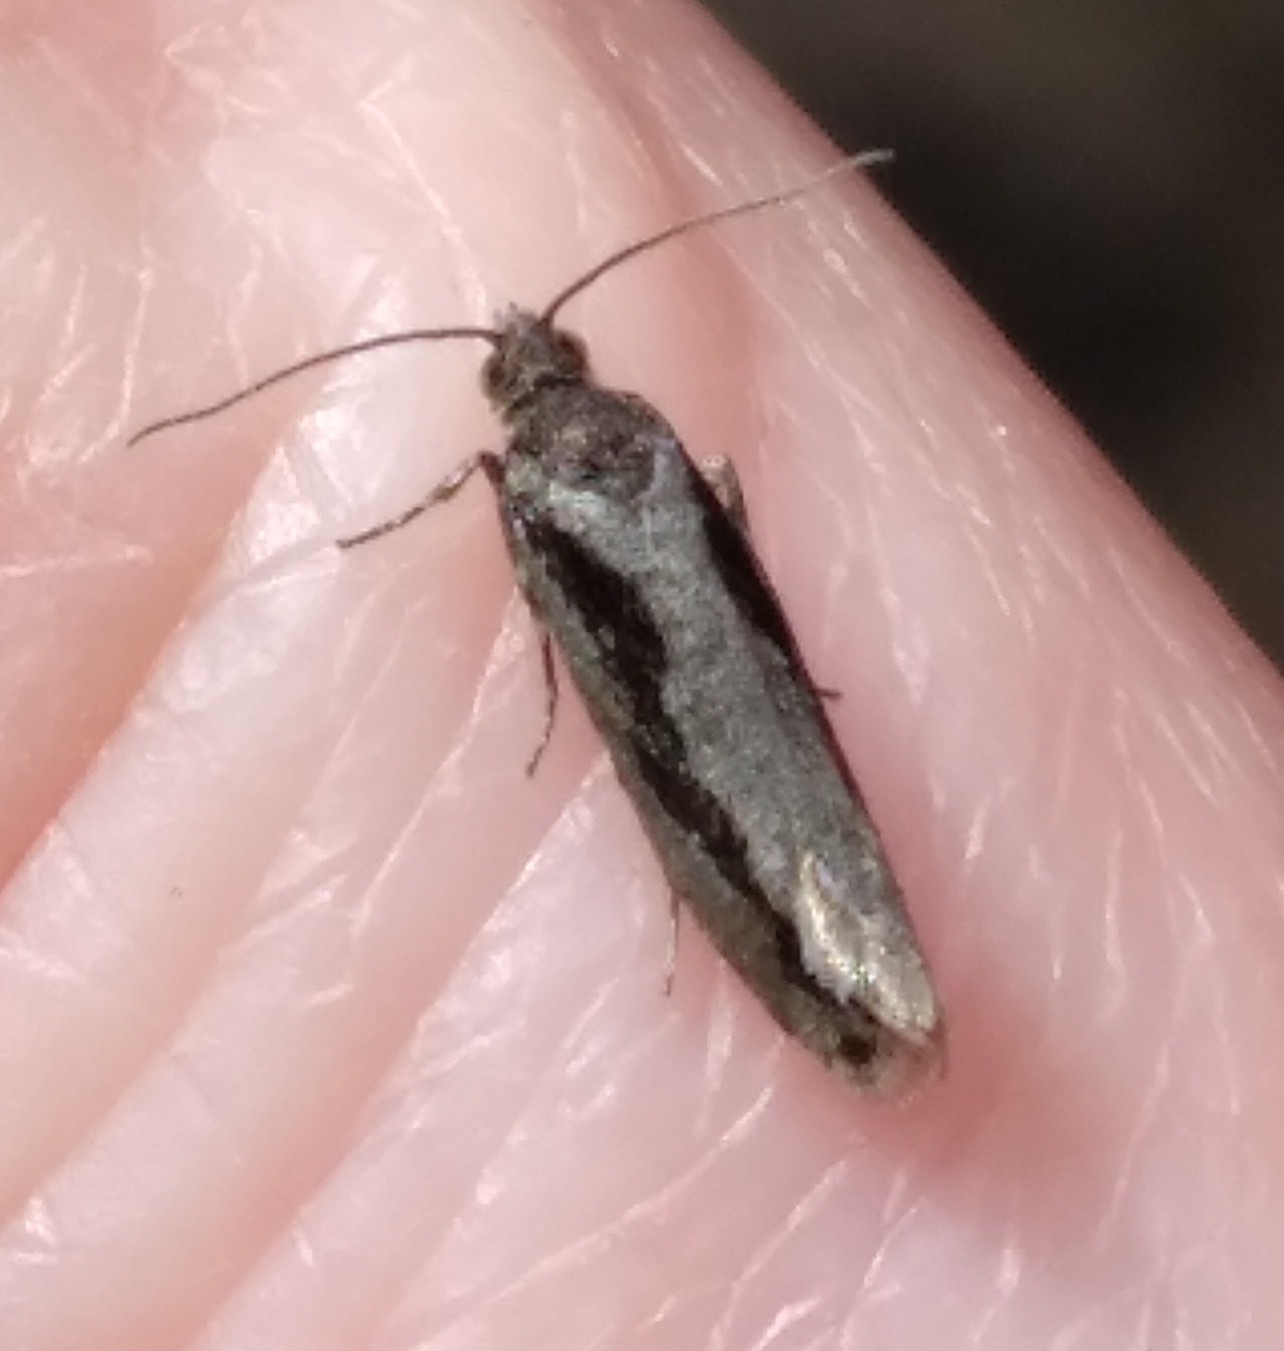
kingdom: Animalia
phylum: Arthropoda
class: Insecta
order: Lepidoptera
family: Tortricidae
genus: Epinotia
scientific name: Epinotia zandana
